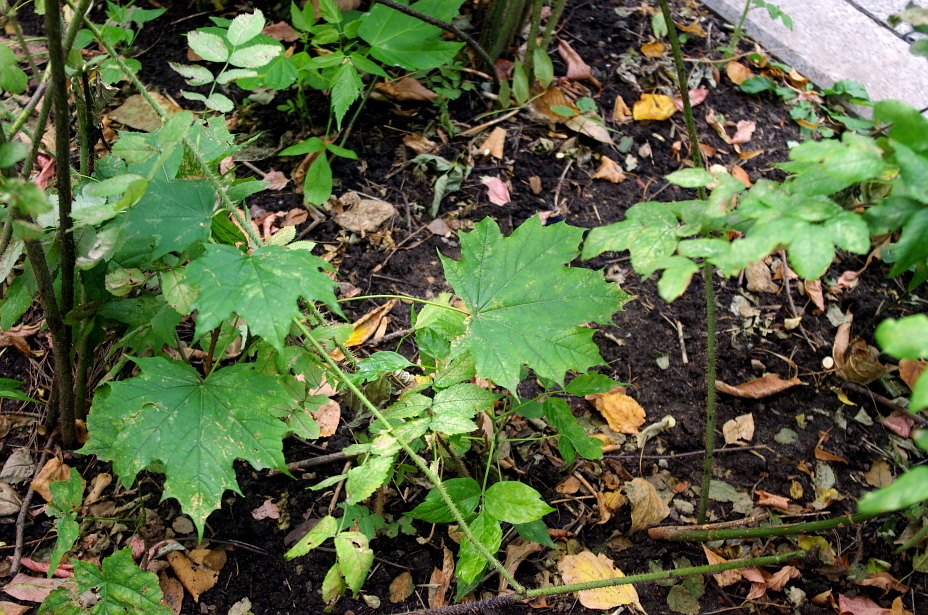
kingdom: Plantae
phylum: Tracheophyta
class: Magnoliopsida
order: Sapindales
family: Sapindaceae
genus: Acer
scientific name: Acer platanoides
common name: Norway maple
